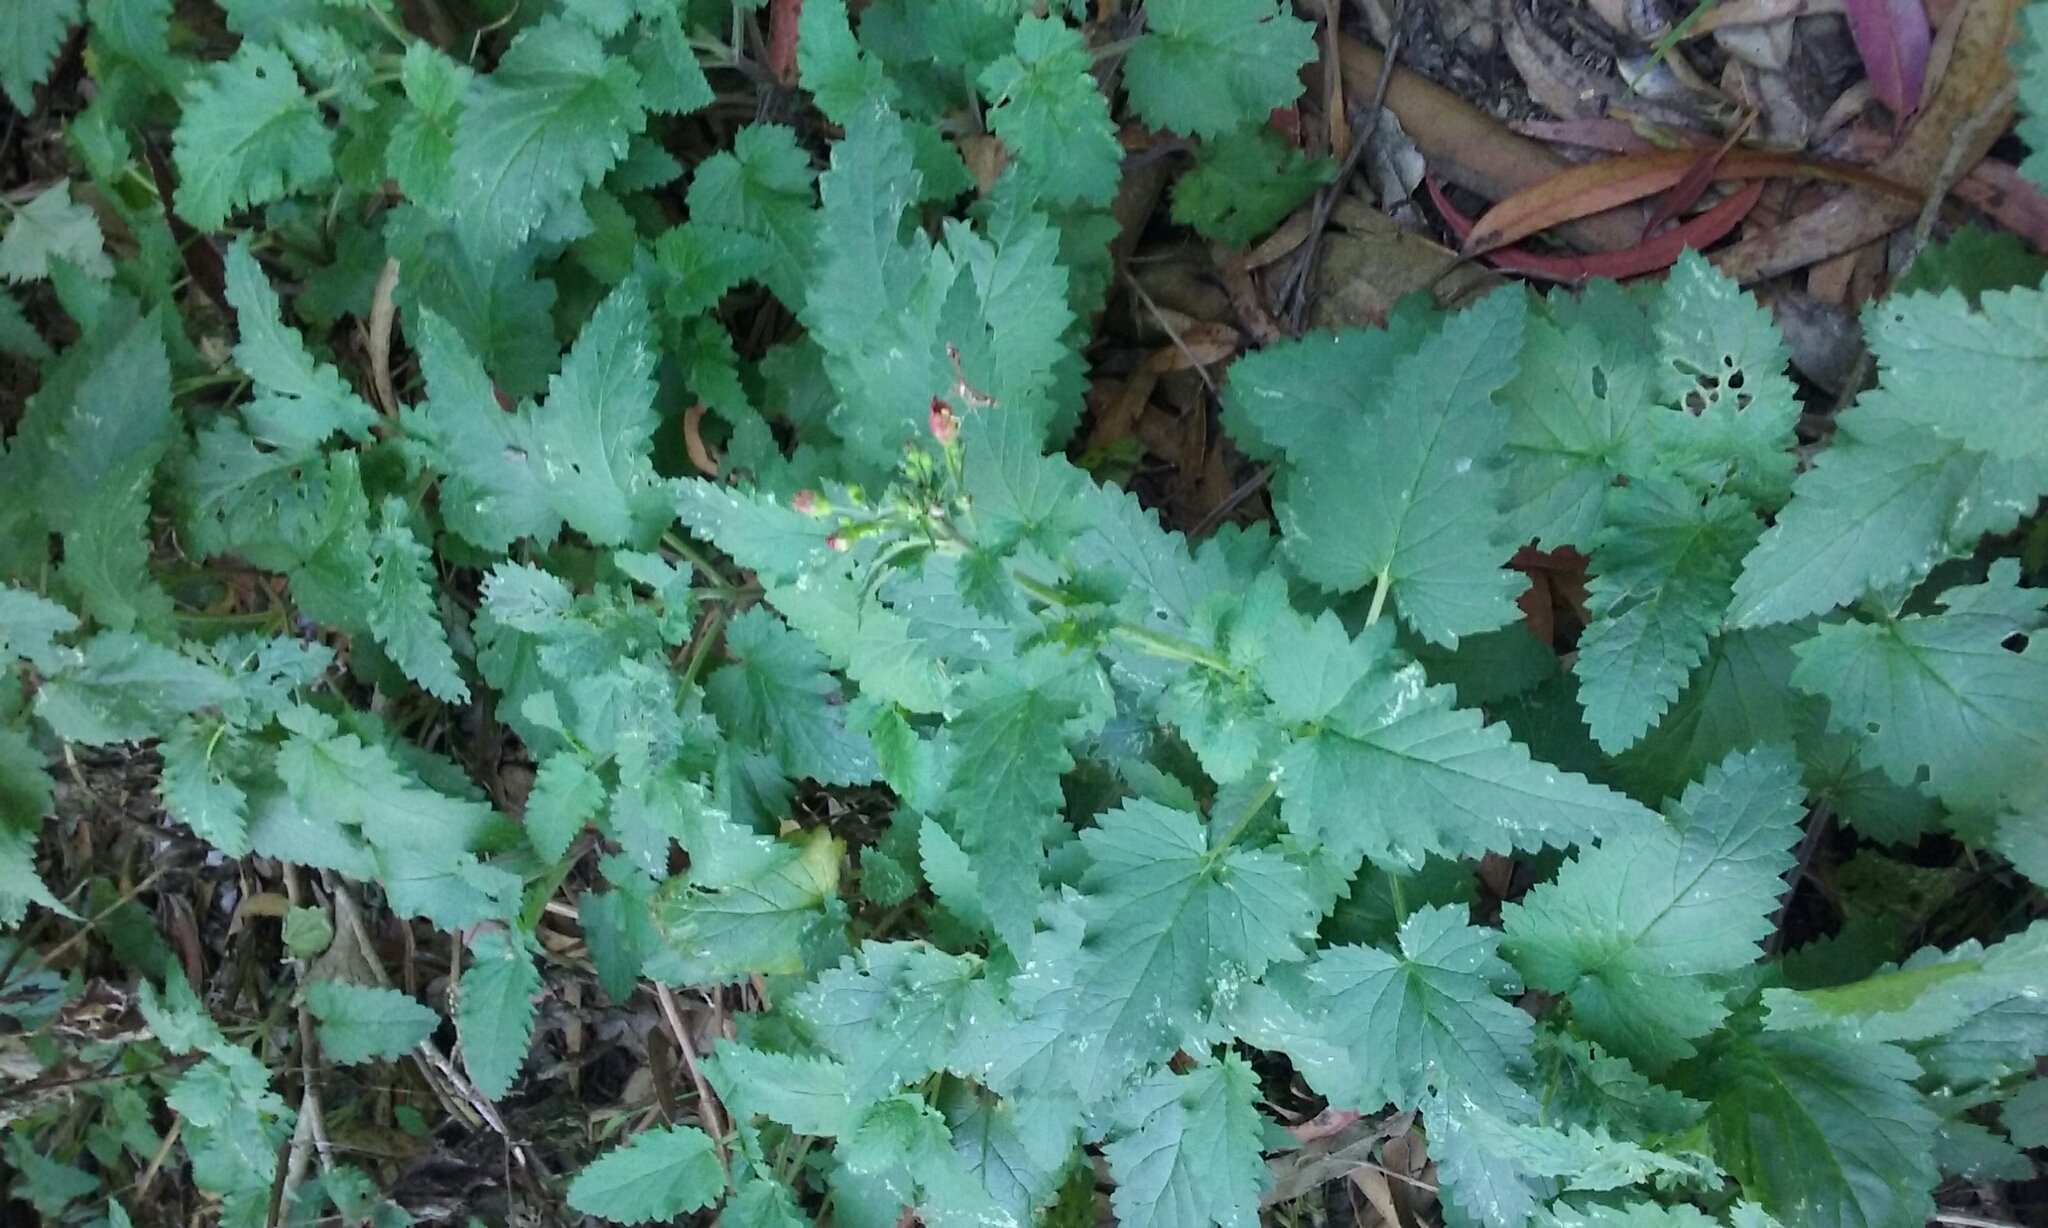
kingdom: Plantae
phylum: Tracheophyta
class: Magnoliopsida
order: Lamiales
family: Scrophulariaceae
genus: Scrophularia
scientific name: Scrophularia californica
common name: California figwort
